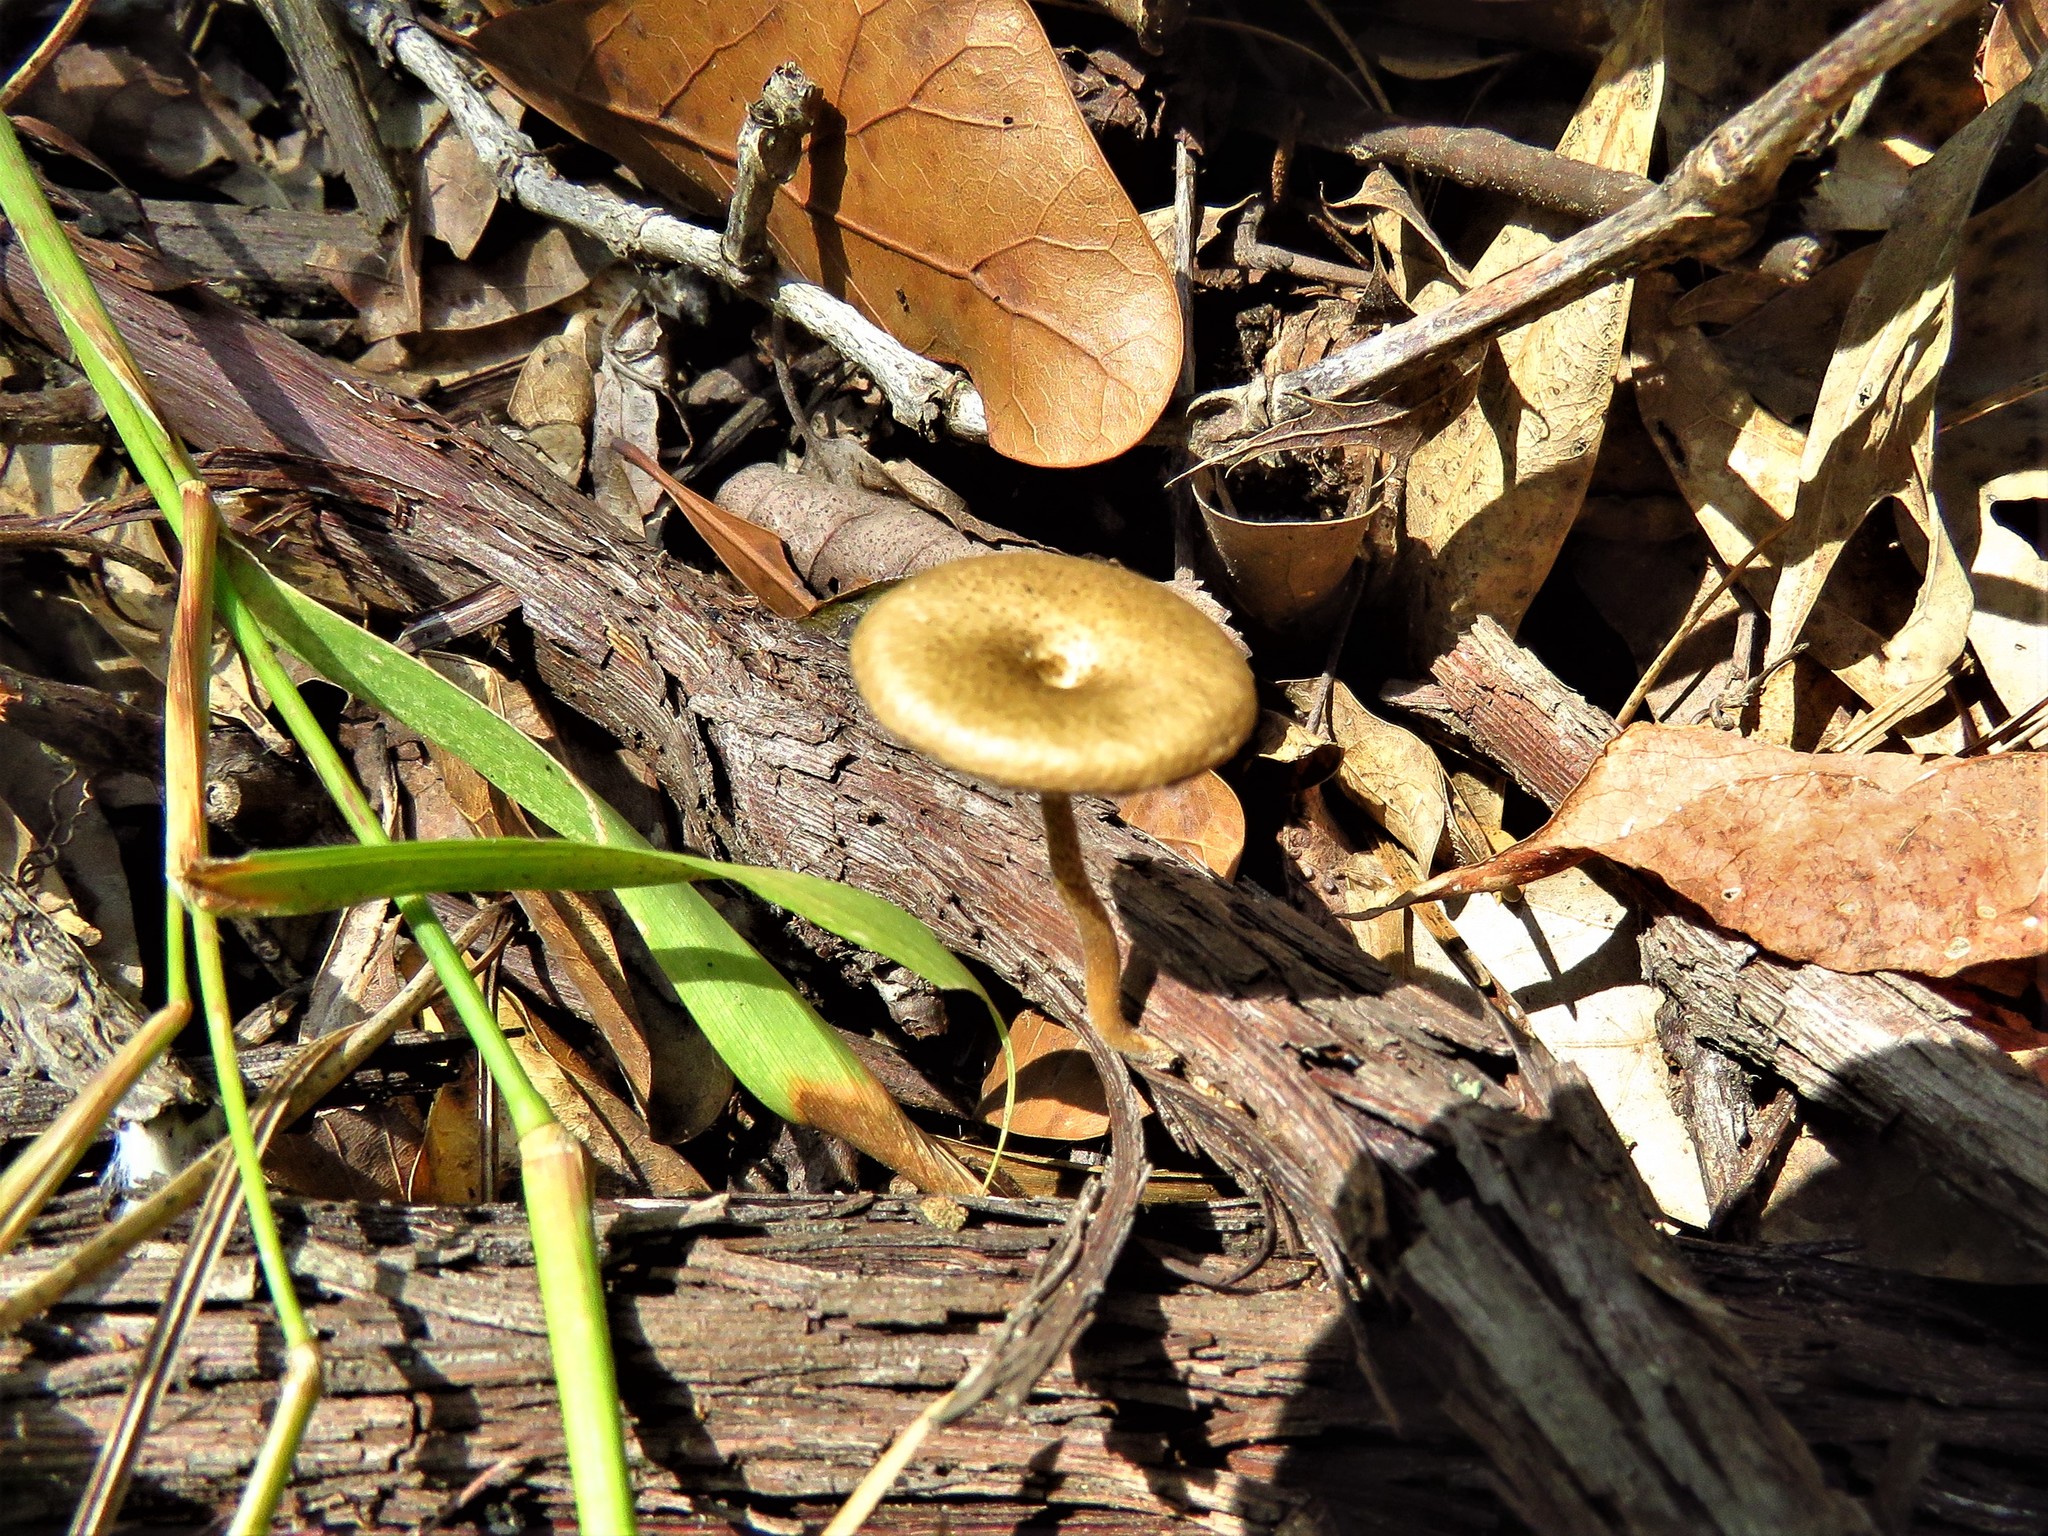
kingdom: Fungi
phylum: Basidiomycota
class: Agaricomycetes
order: Polyporales
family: Polyporaceae
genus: Lentinus
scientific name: Lentinus arcularius
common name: Spring polypore
